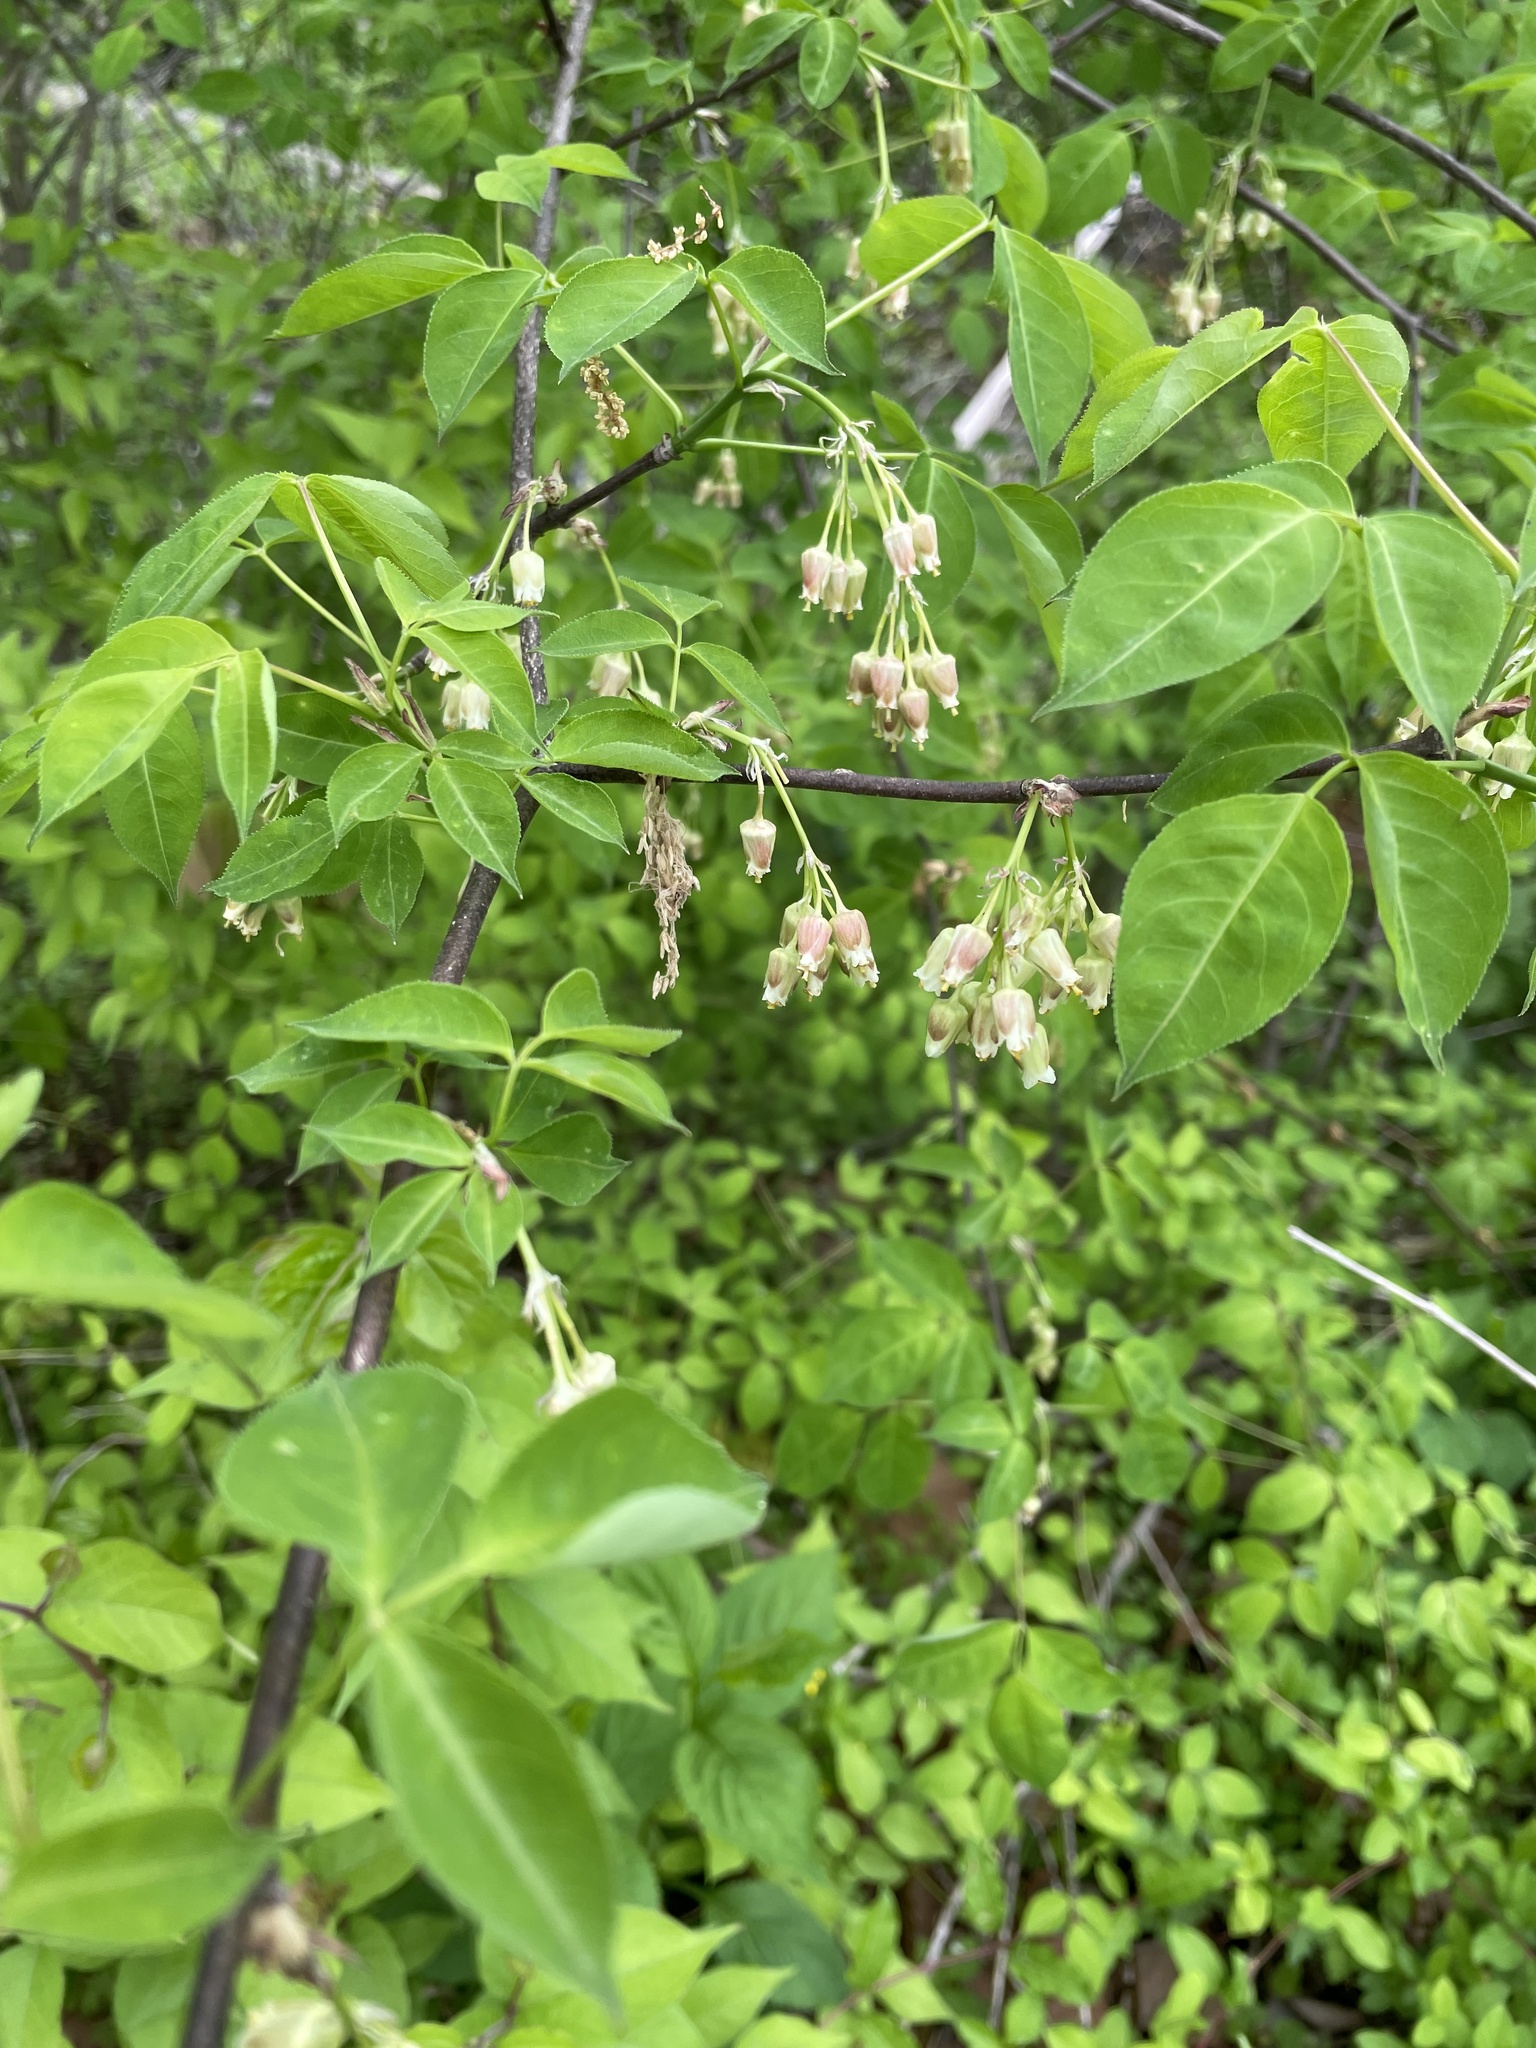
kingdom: Plantae
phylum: Tracheophyta
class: Magnoliopsida
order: Crossosomatales
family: Staphyleaceae
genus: Staphylea
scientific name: Staphylea trifolia
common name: American bladdernut
